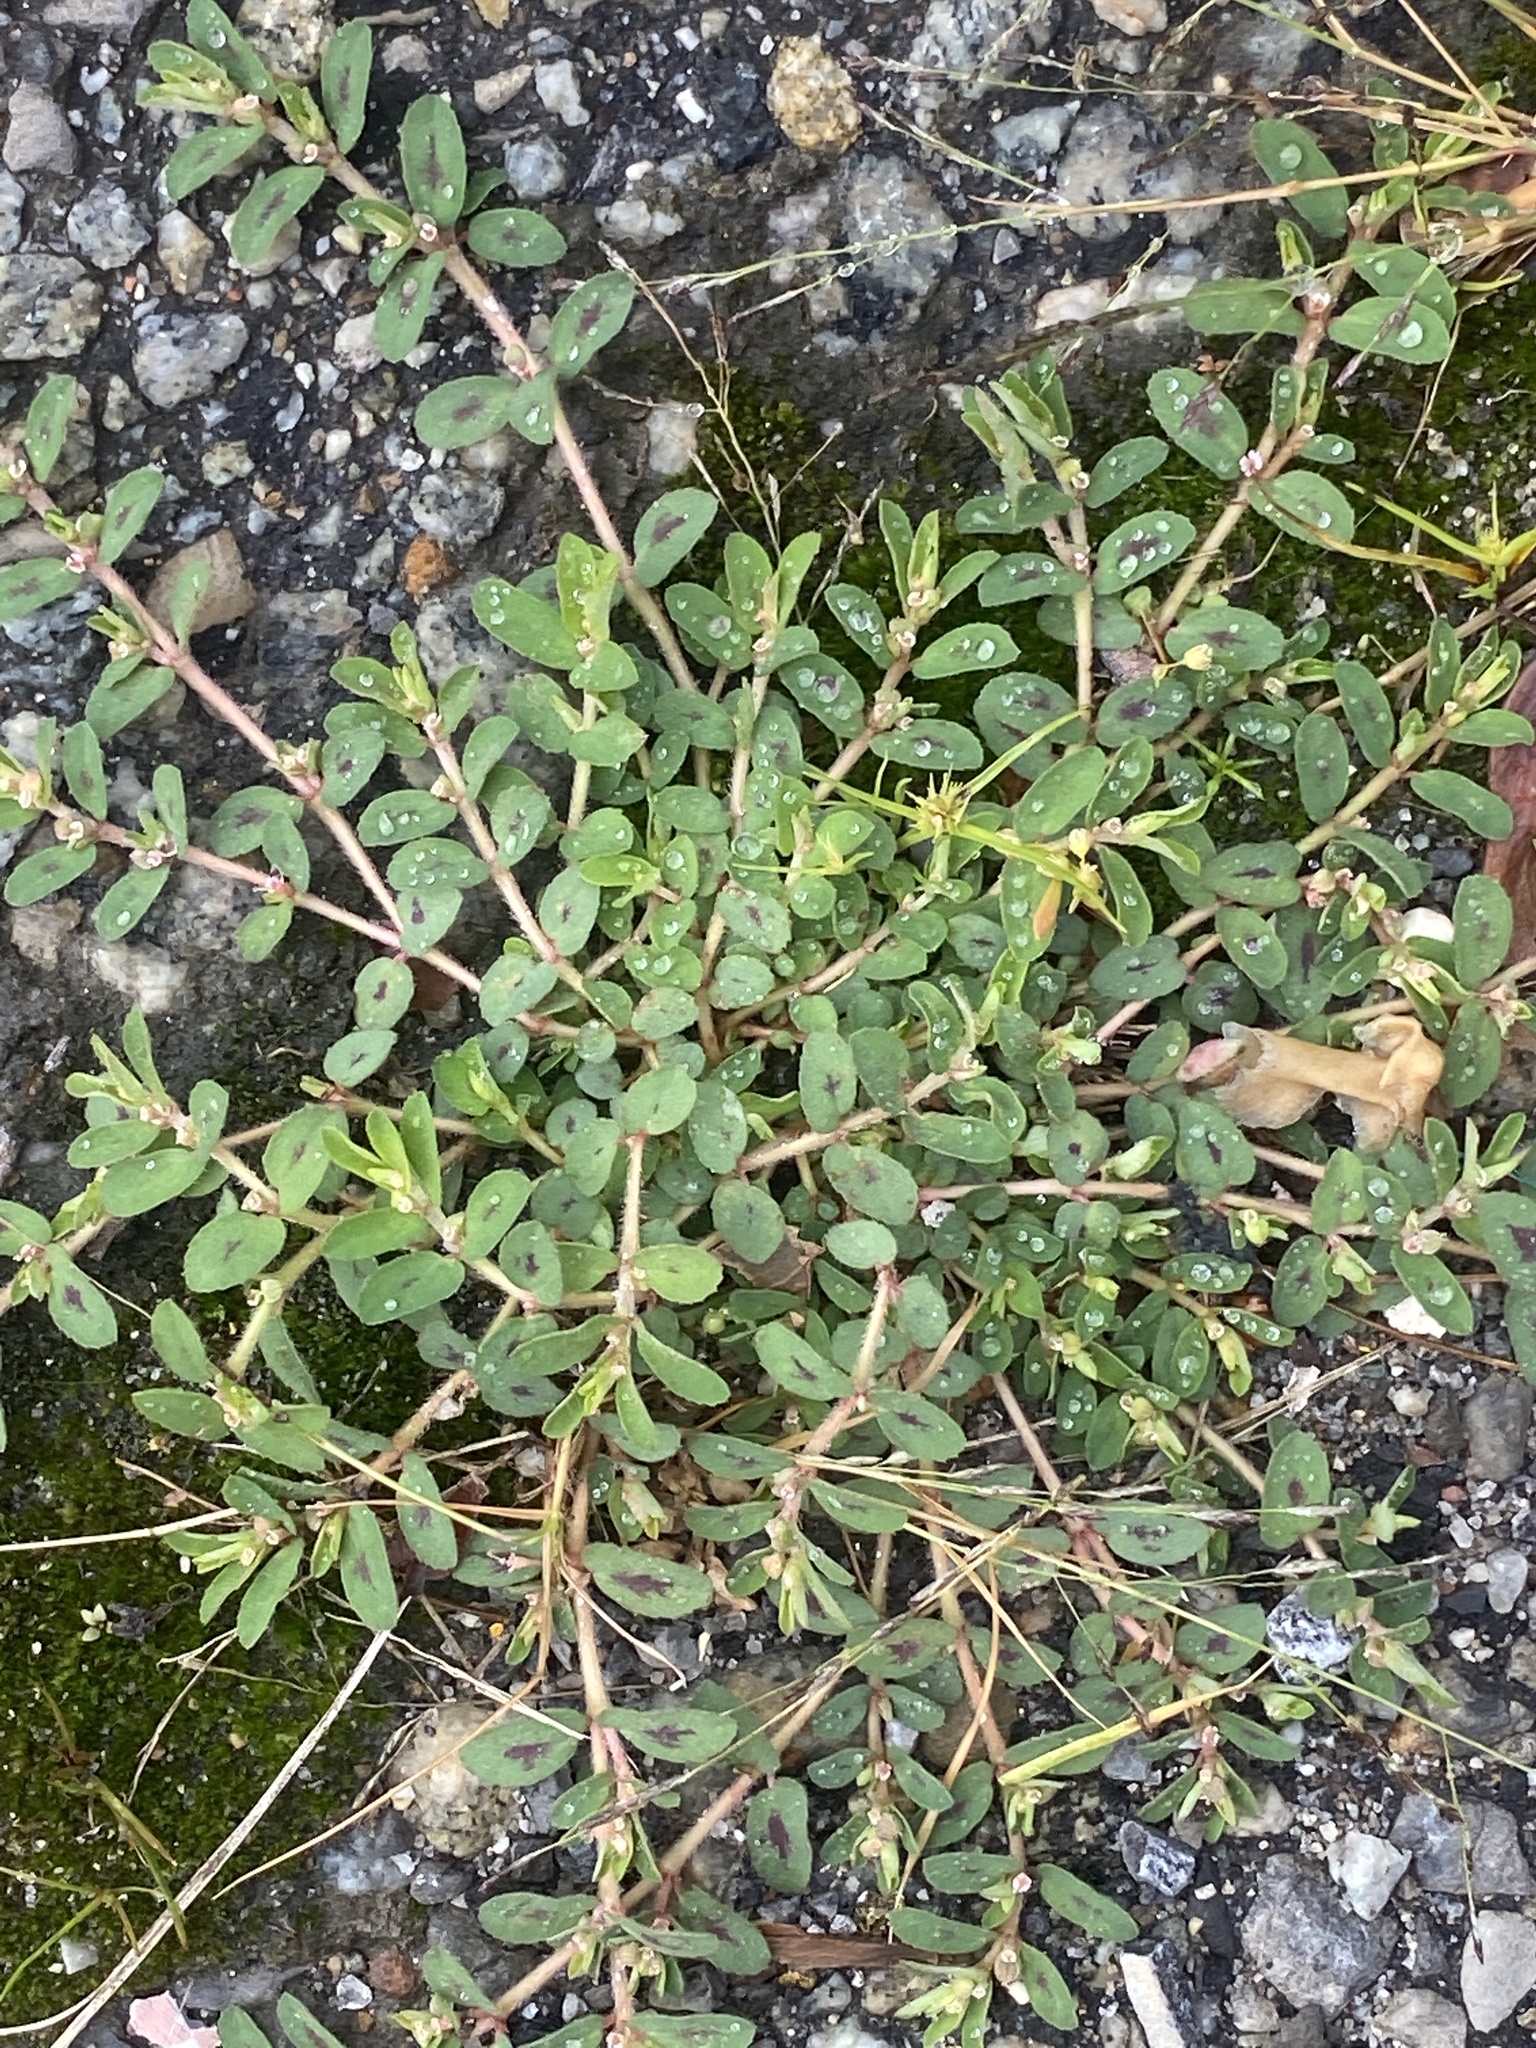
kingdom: Plantae
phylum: Tracheophyta
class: Magnoliopsida
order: Malpighiales
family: Euphorbiaceae
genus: Euphorbia
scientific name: Euphorbia maculata
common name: Spotted spurge
